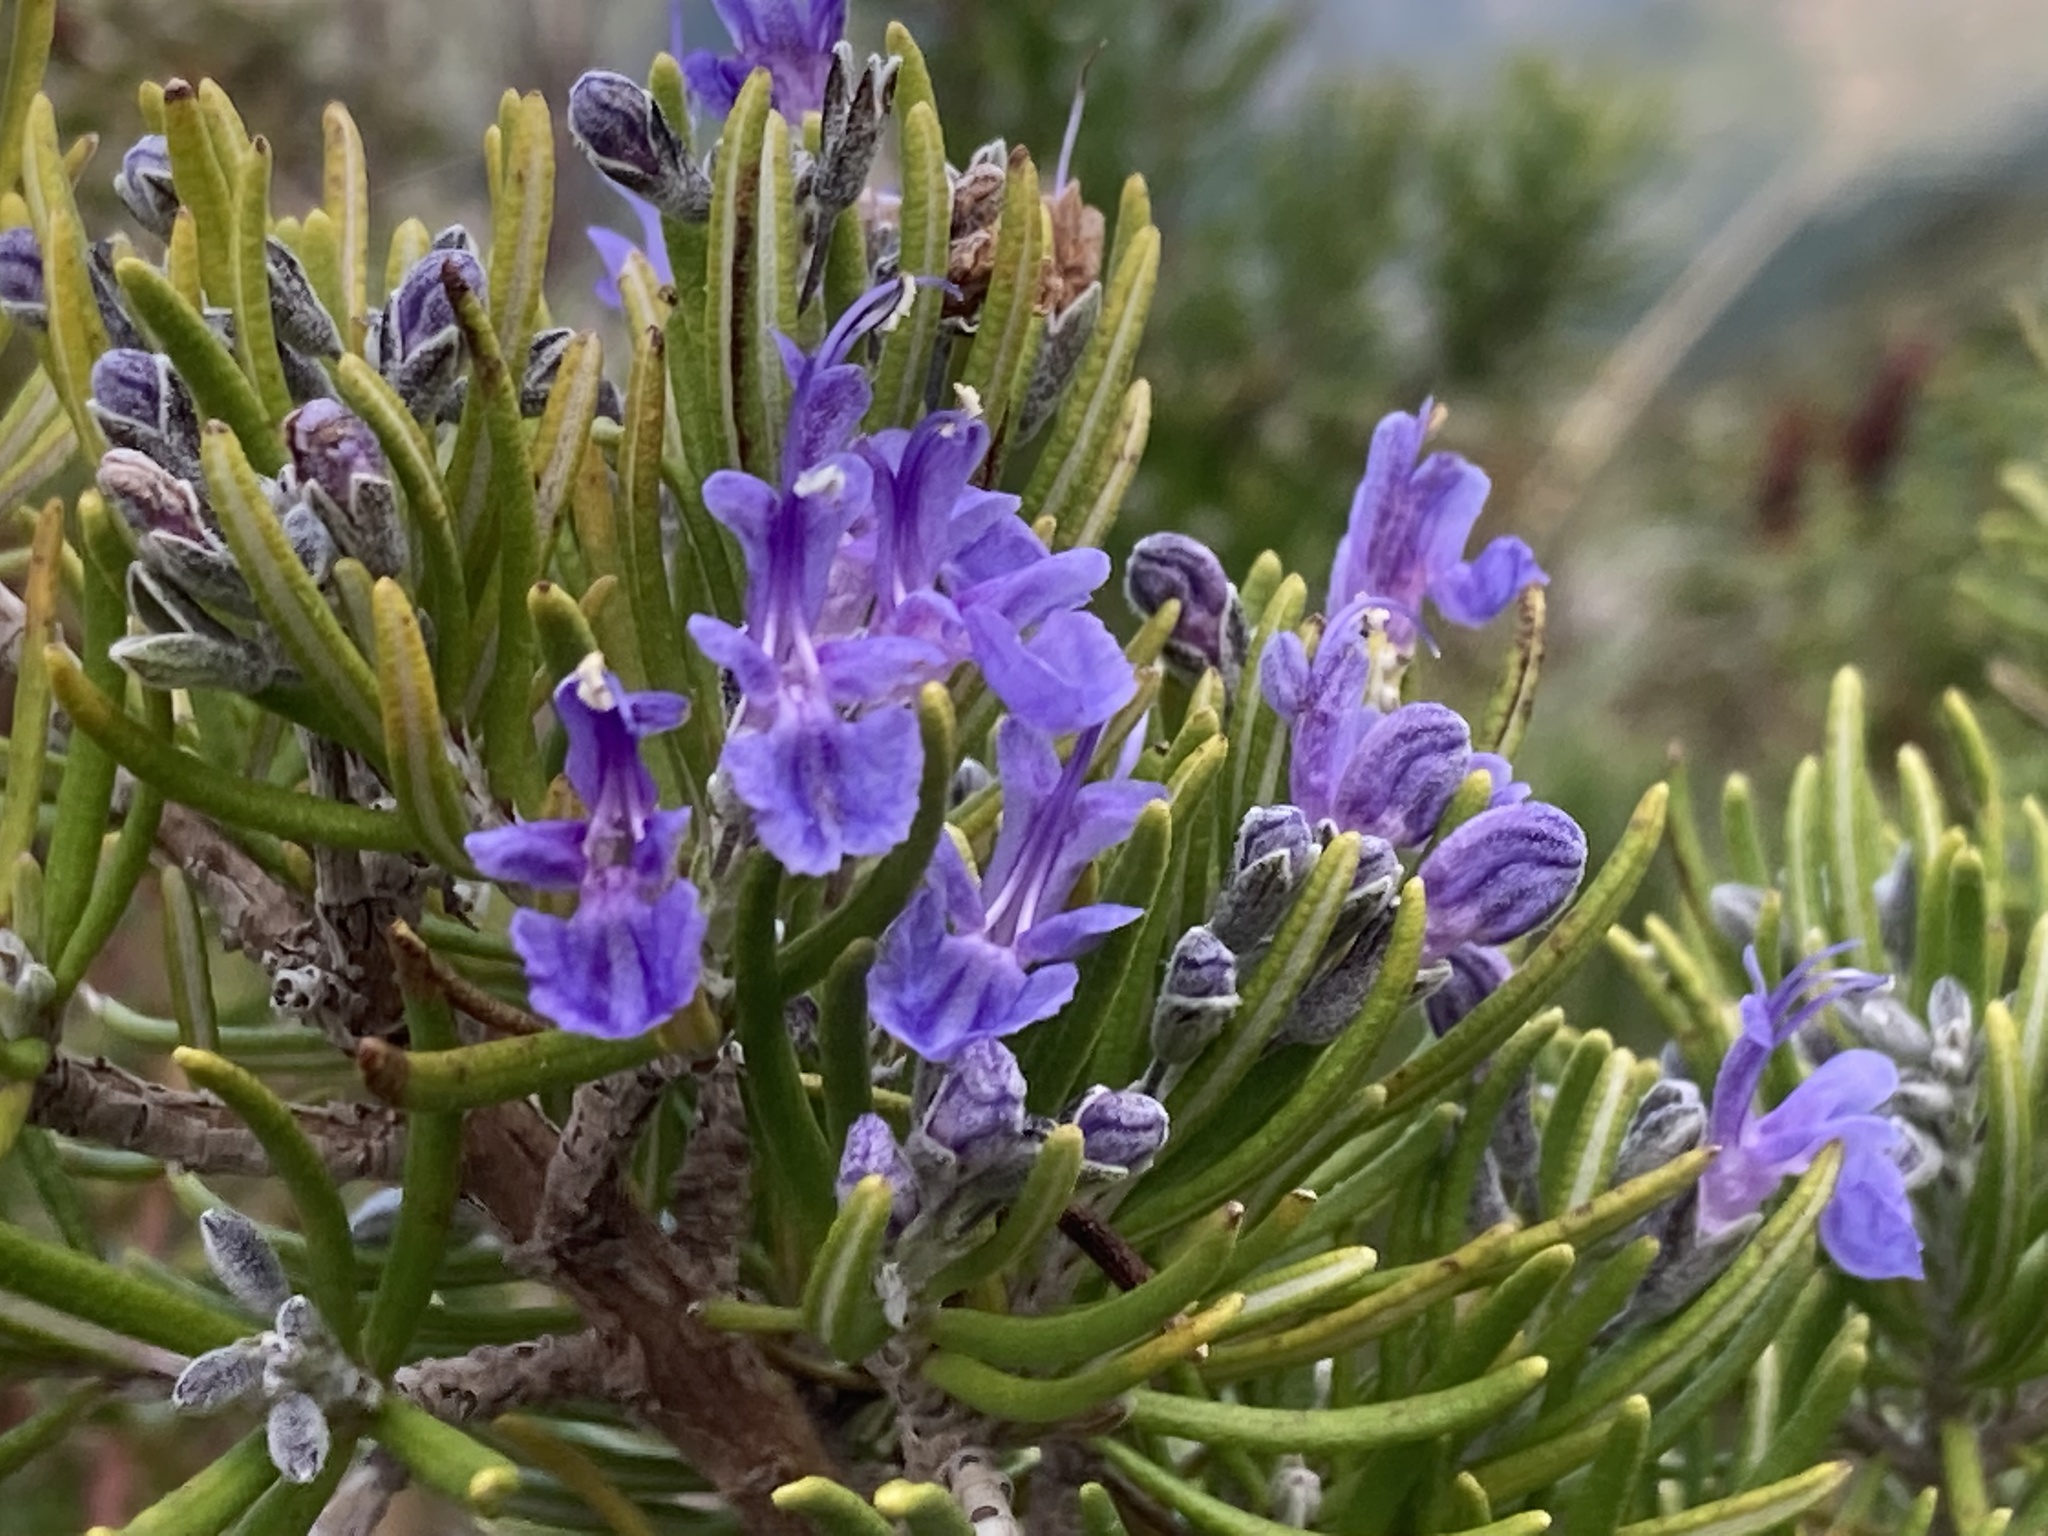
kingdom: Plantae
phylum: Tracheophyta
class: Magnoliopsida
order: Lamiales
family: Lamiaceae
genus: Salvia
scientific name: Salvia rosmarinus
